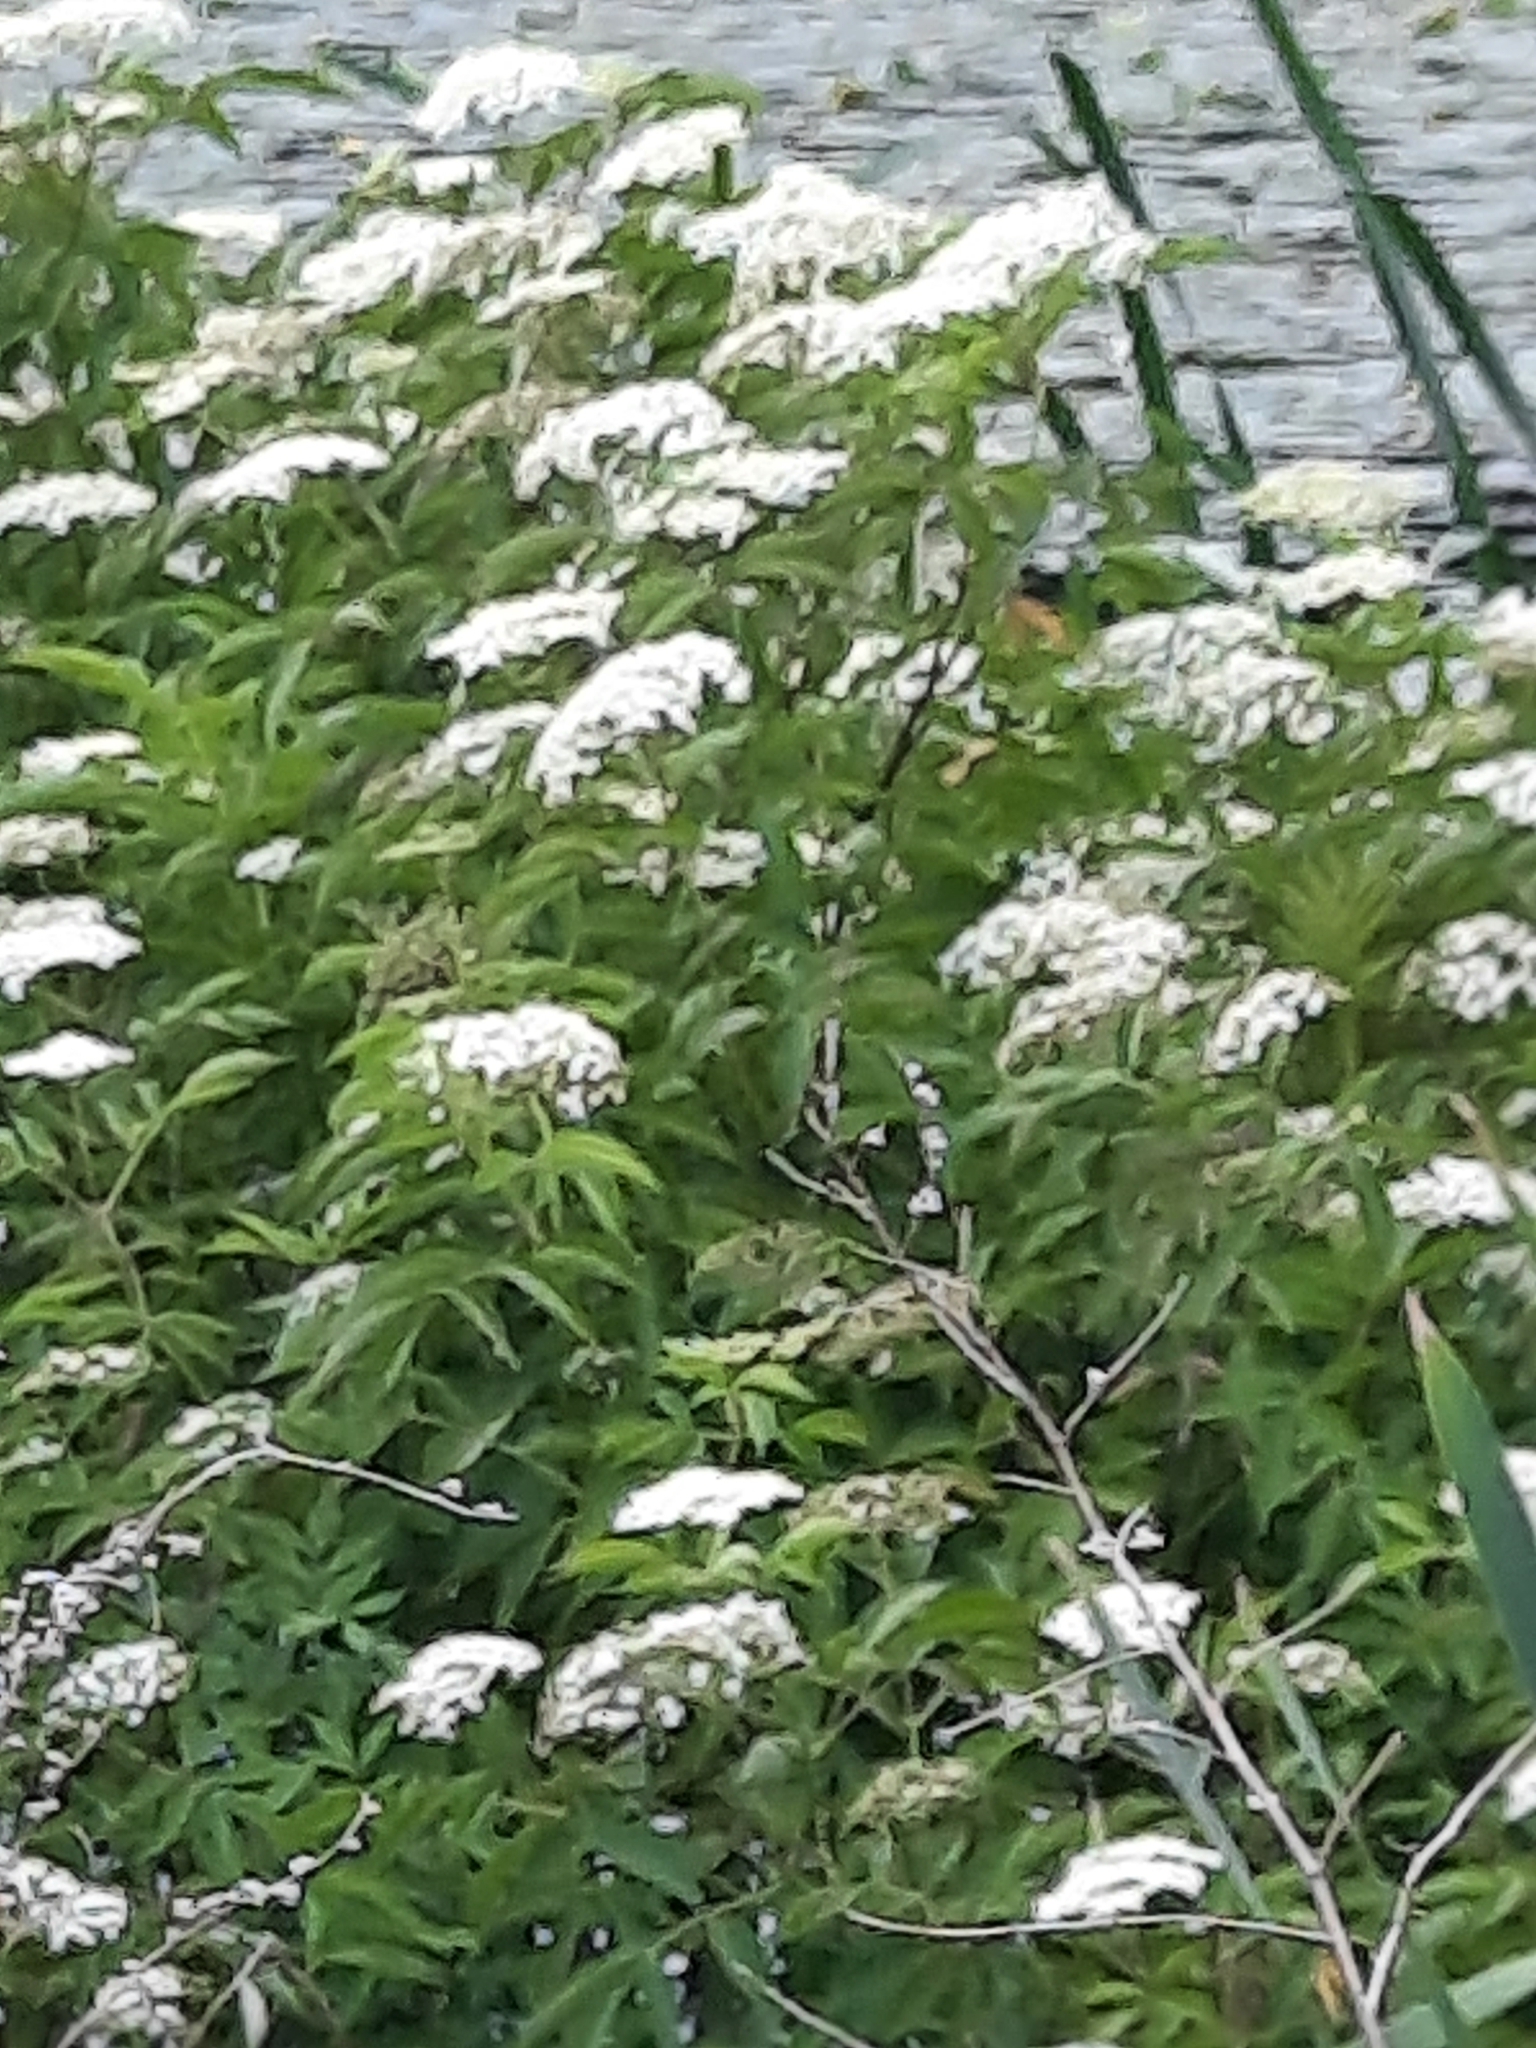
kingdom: Plantae
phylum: Tracheophyta
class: Magnoliopsida
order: Dipsacales
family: Viburnaceae
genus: Sambucus
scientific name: Sambucus canadensis
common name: American elder
